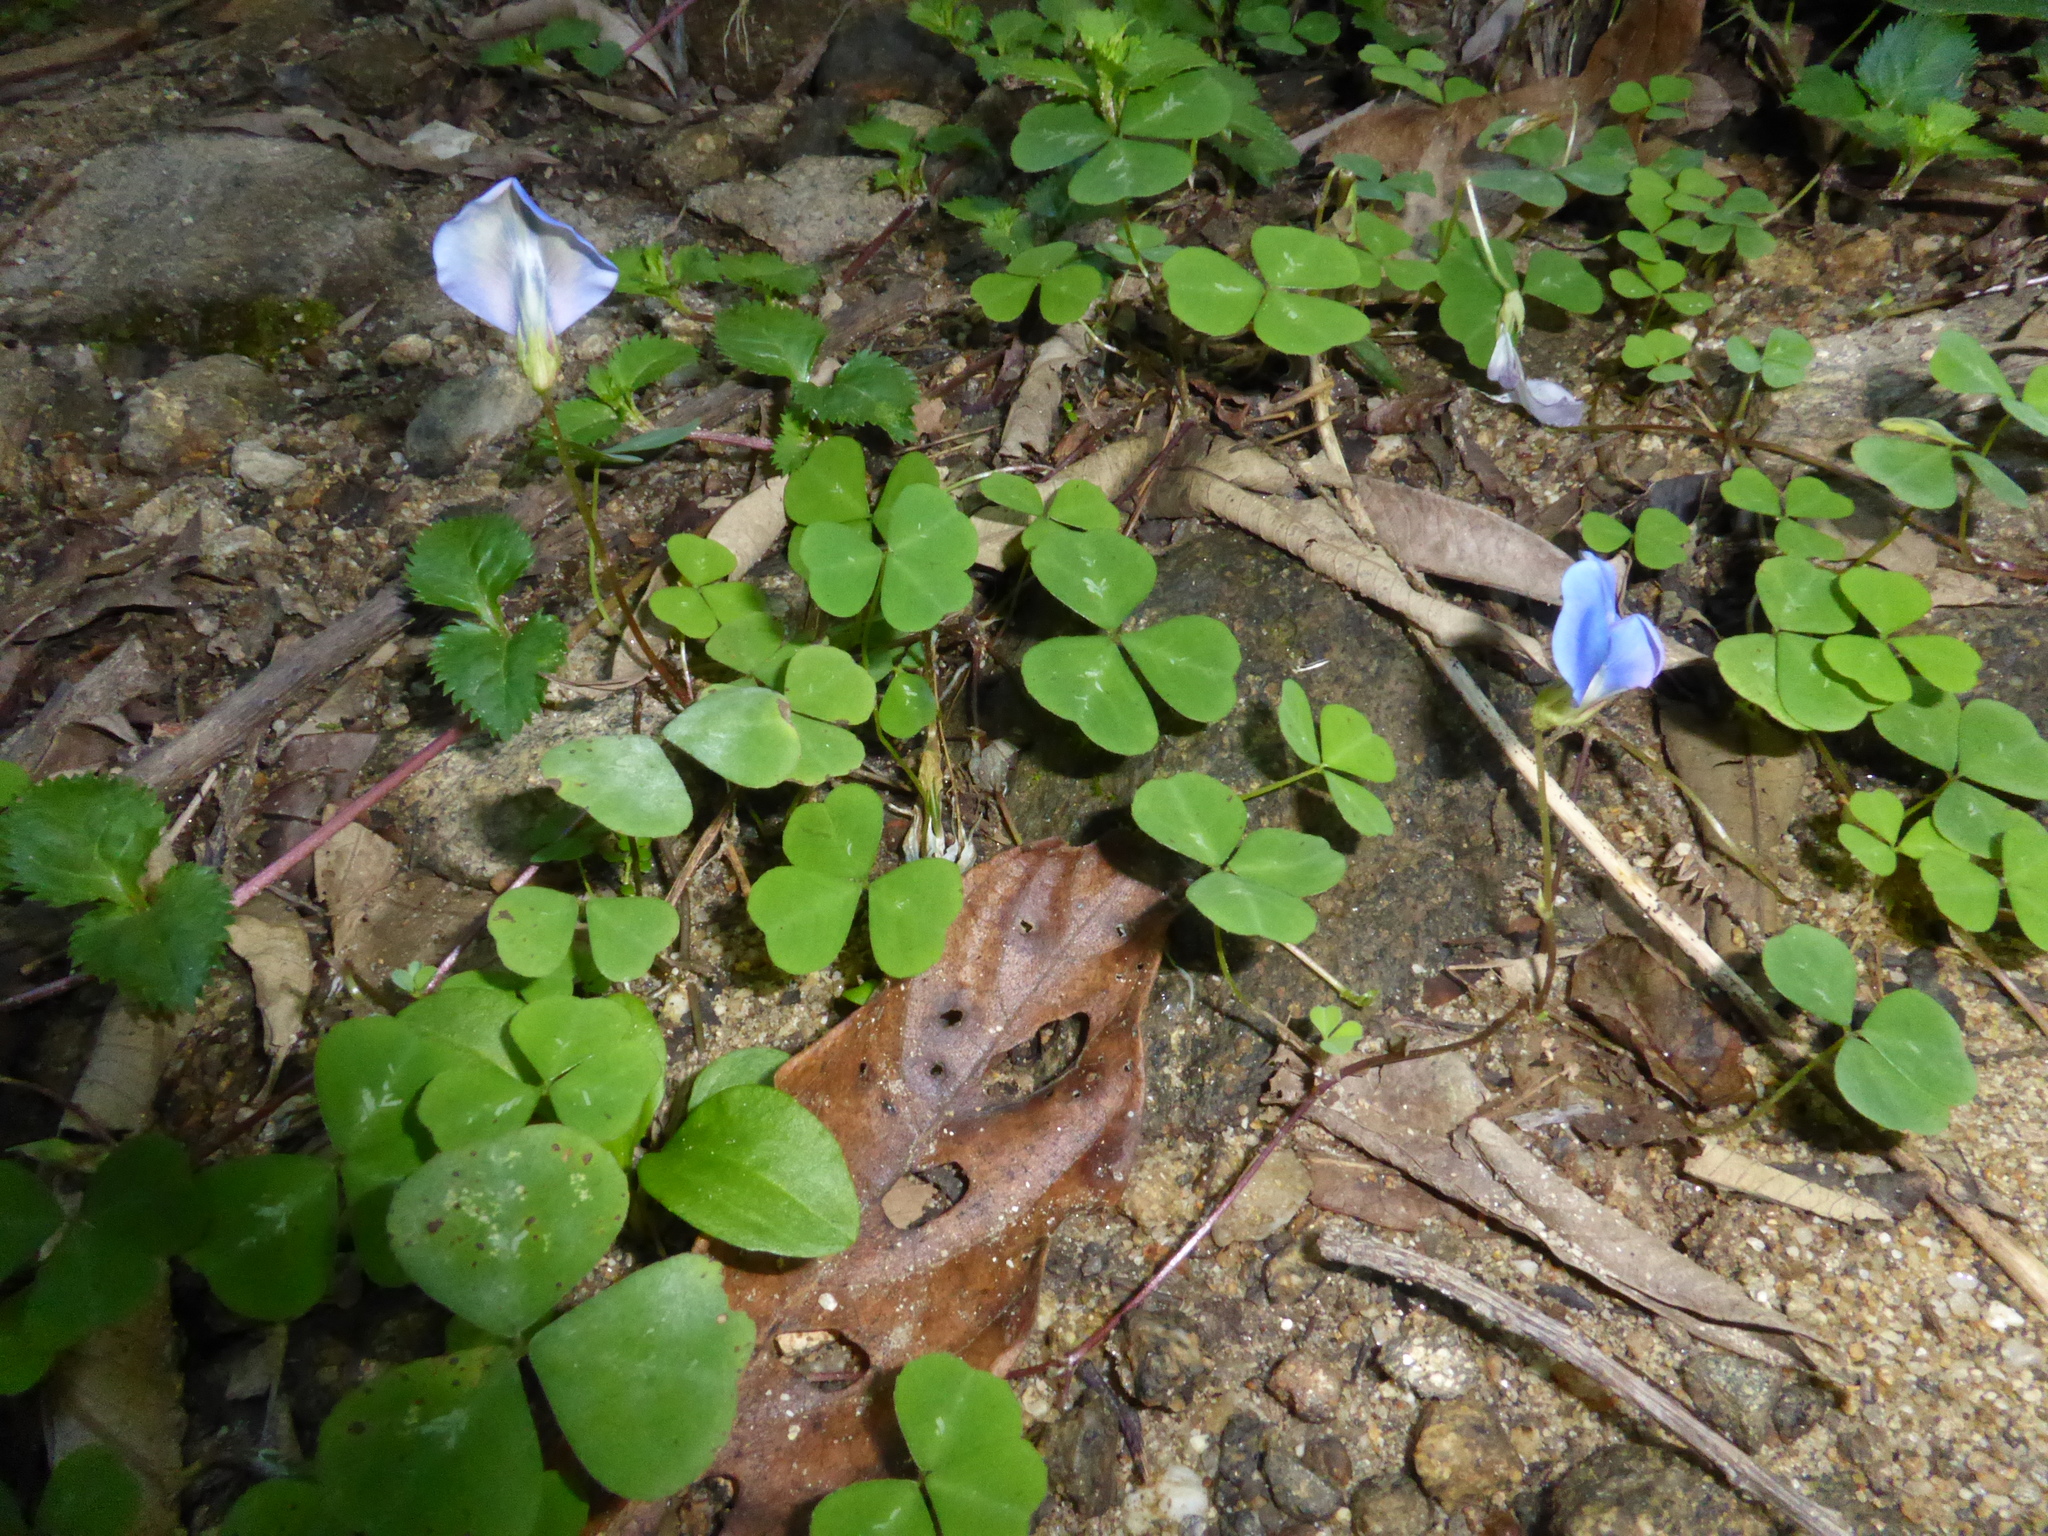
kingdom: Plantae
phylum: Tracheophyta
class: Magnoliopsida
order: Fabales
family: Fabaceae
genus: Parochetus
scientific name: Parochetus communis
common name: Blue oxalis
